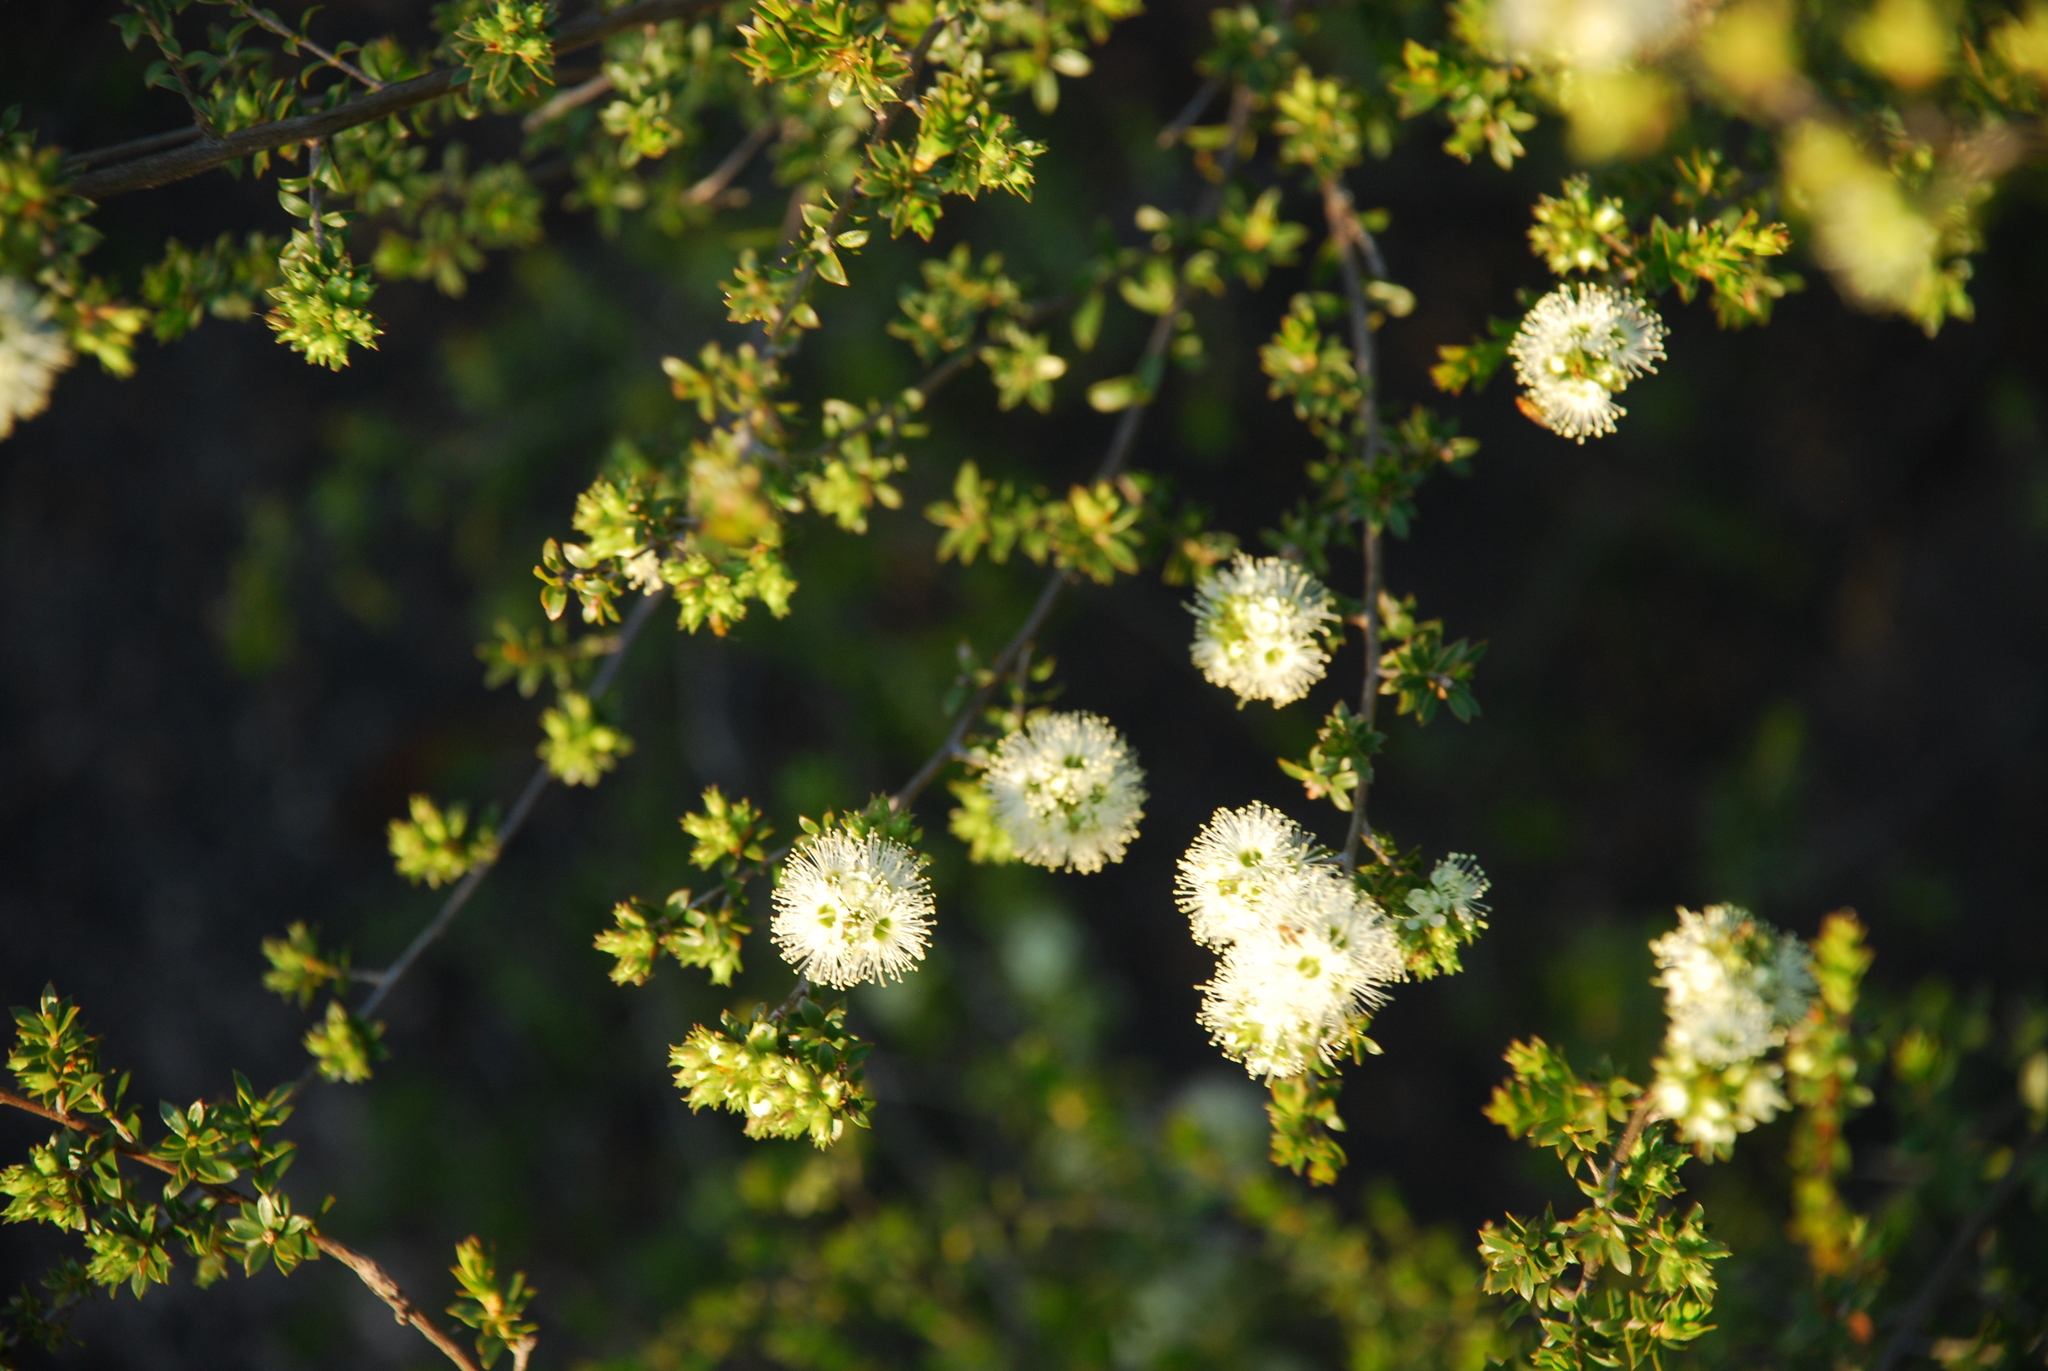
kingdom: Plantae
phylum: Tracheophyta
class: Magnoliopsida
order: Myrtales
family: Myrtaceae
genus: Kunzea
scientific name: Kunzea bracteolata
